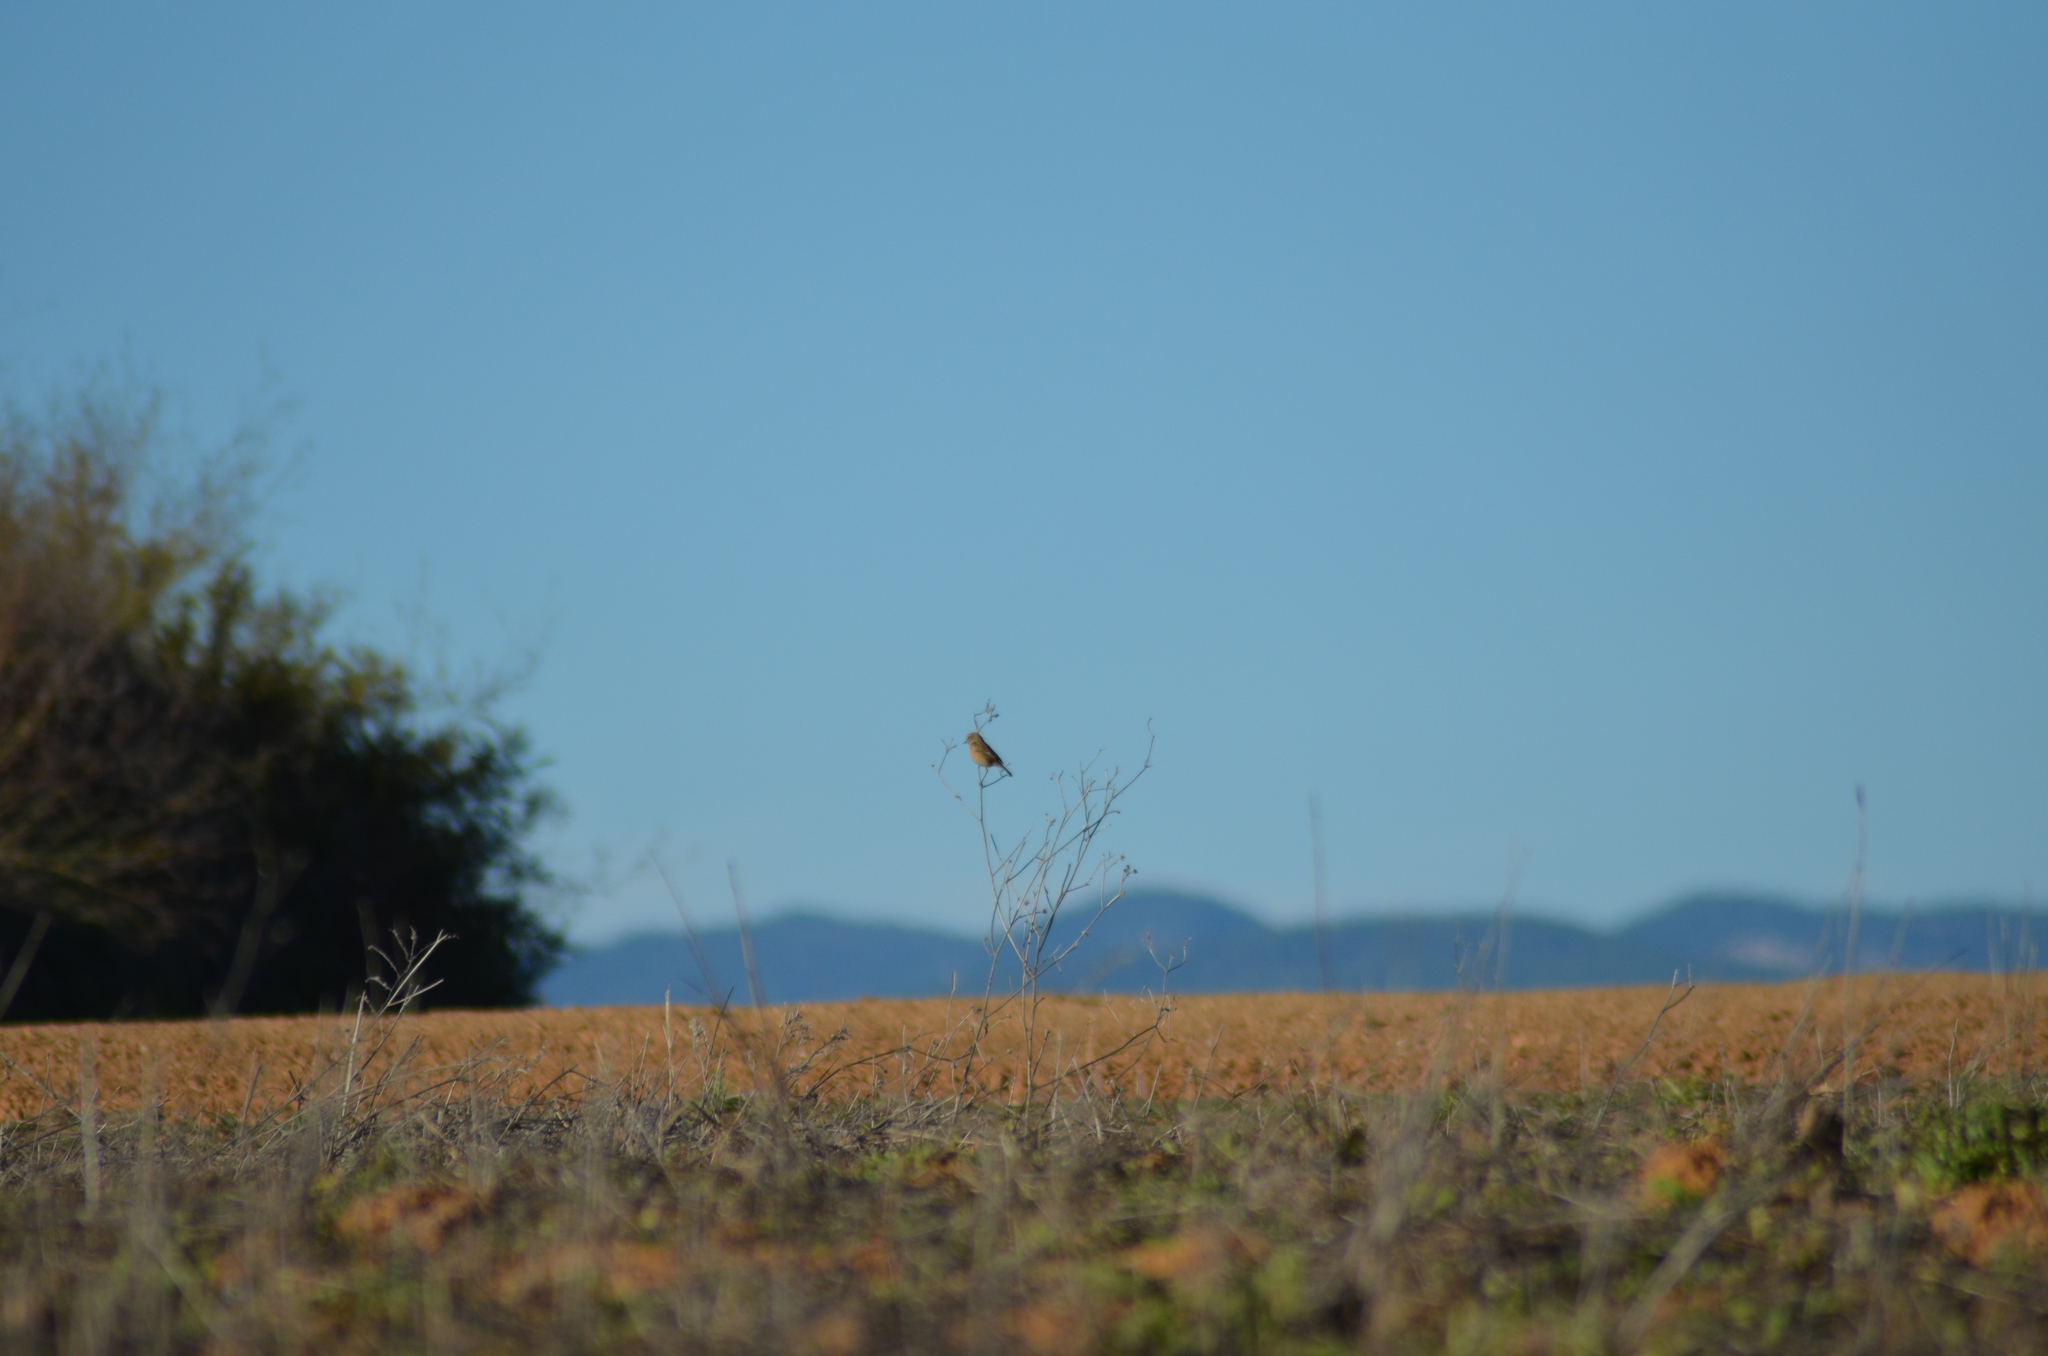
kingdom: Animalia
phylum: Chordata
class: Aves
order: Passeriformes
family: Muscicapidae
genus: Saxicola
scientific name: Saxicola rubicola
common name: European stonechat
